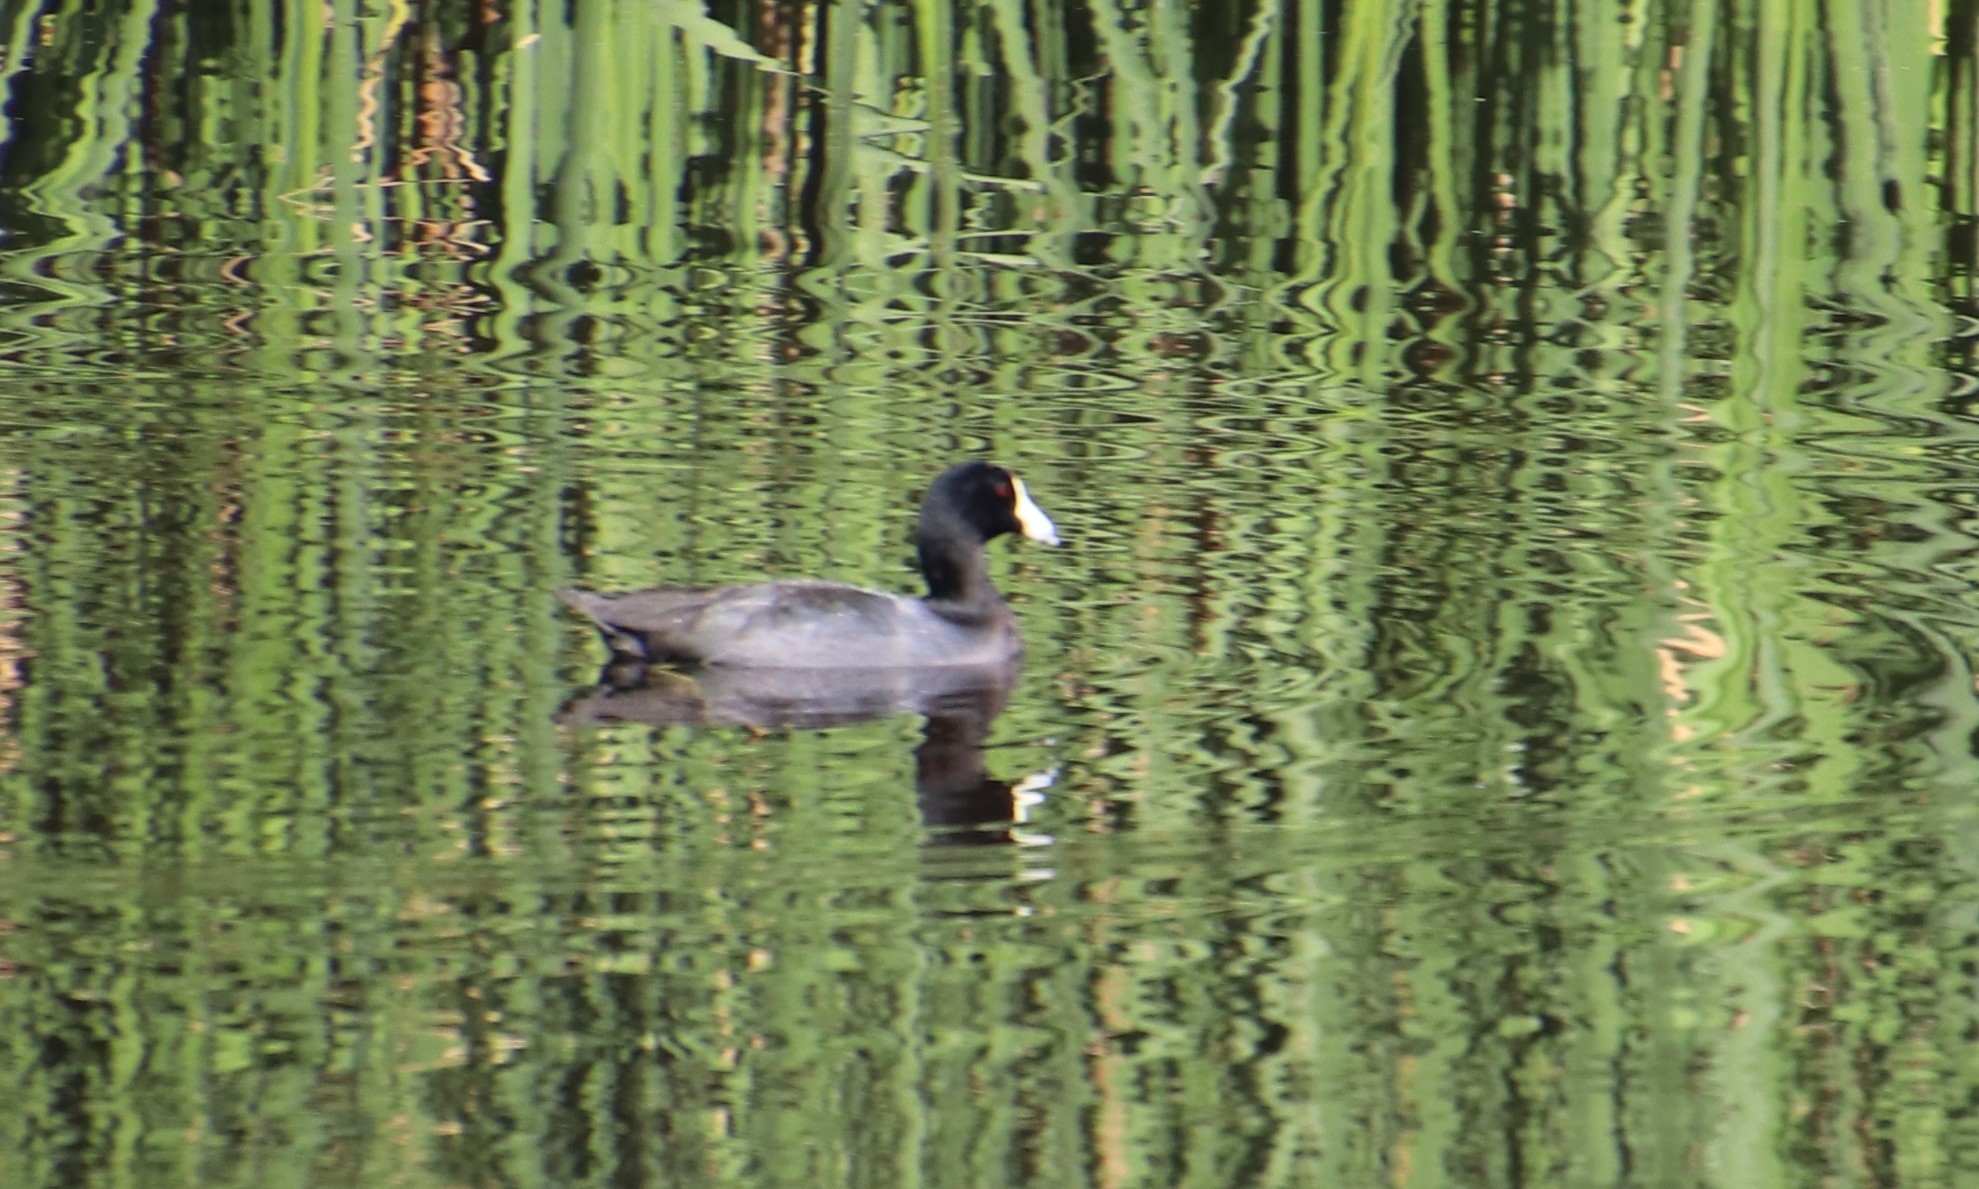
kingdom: Animalia
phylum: Chordata
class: Aves
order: Gruiformes
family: Rallidae
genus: Fulica
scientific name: Fulica americana
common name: American coot
